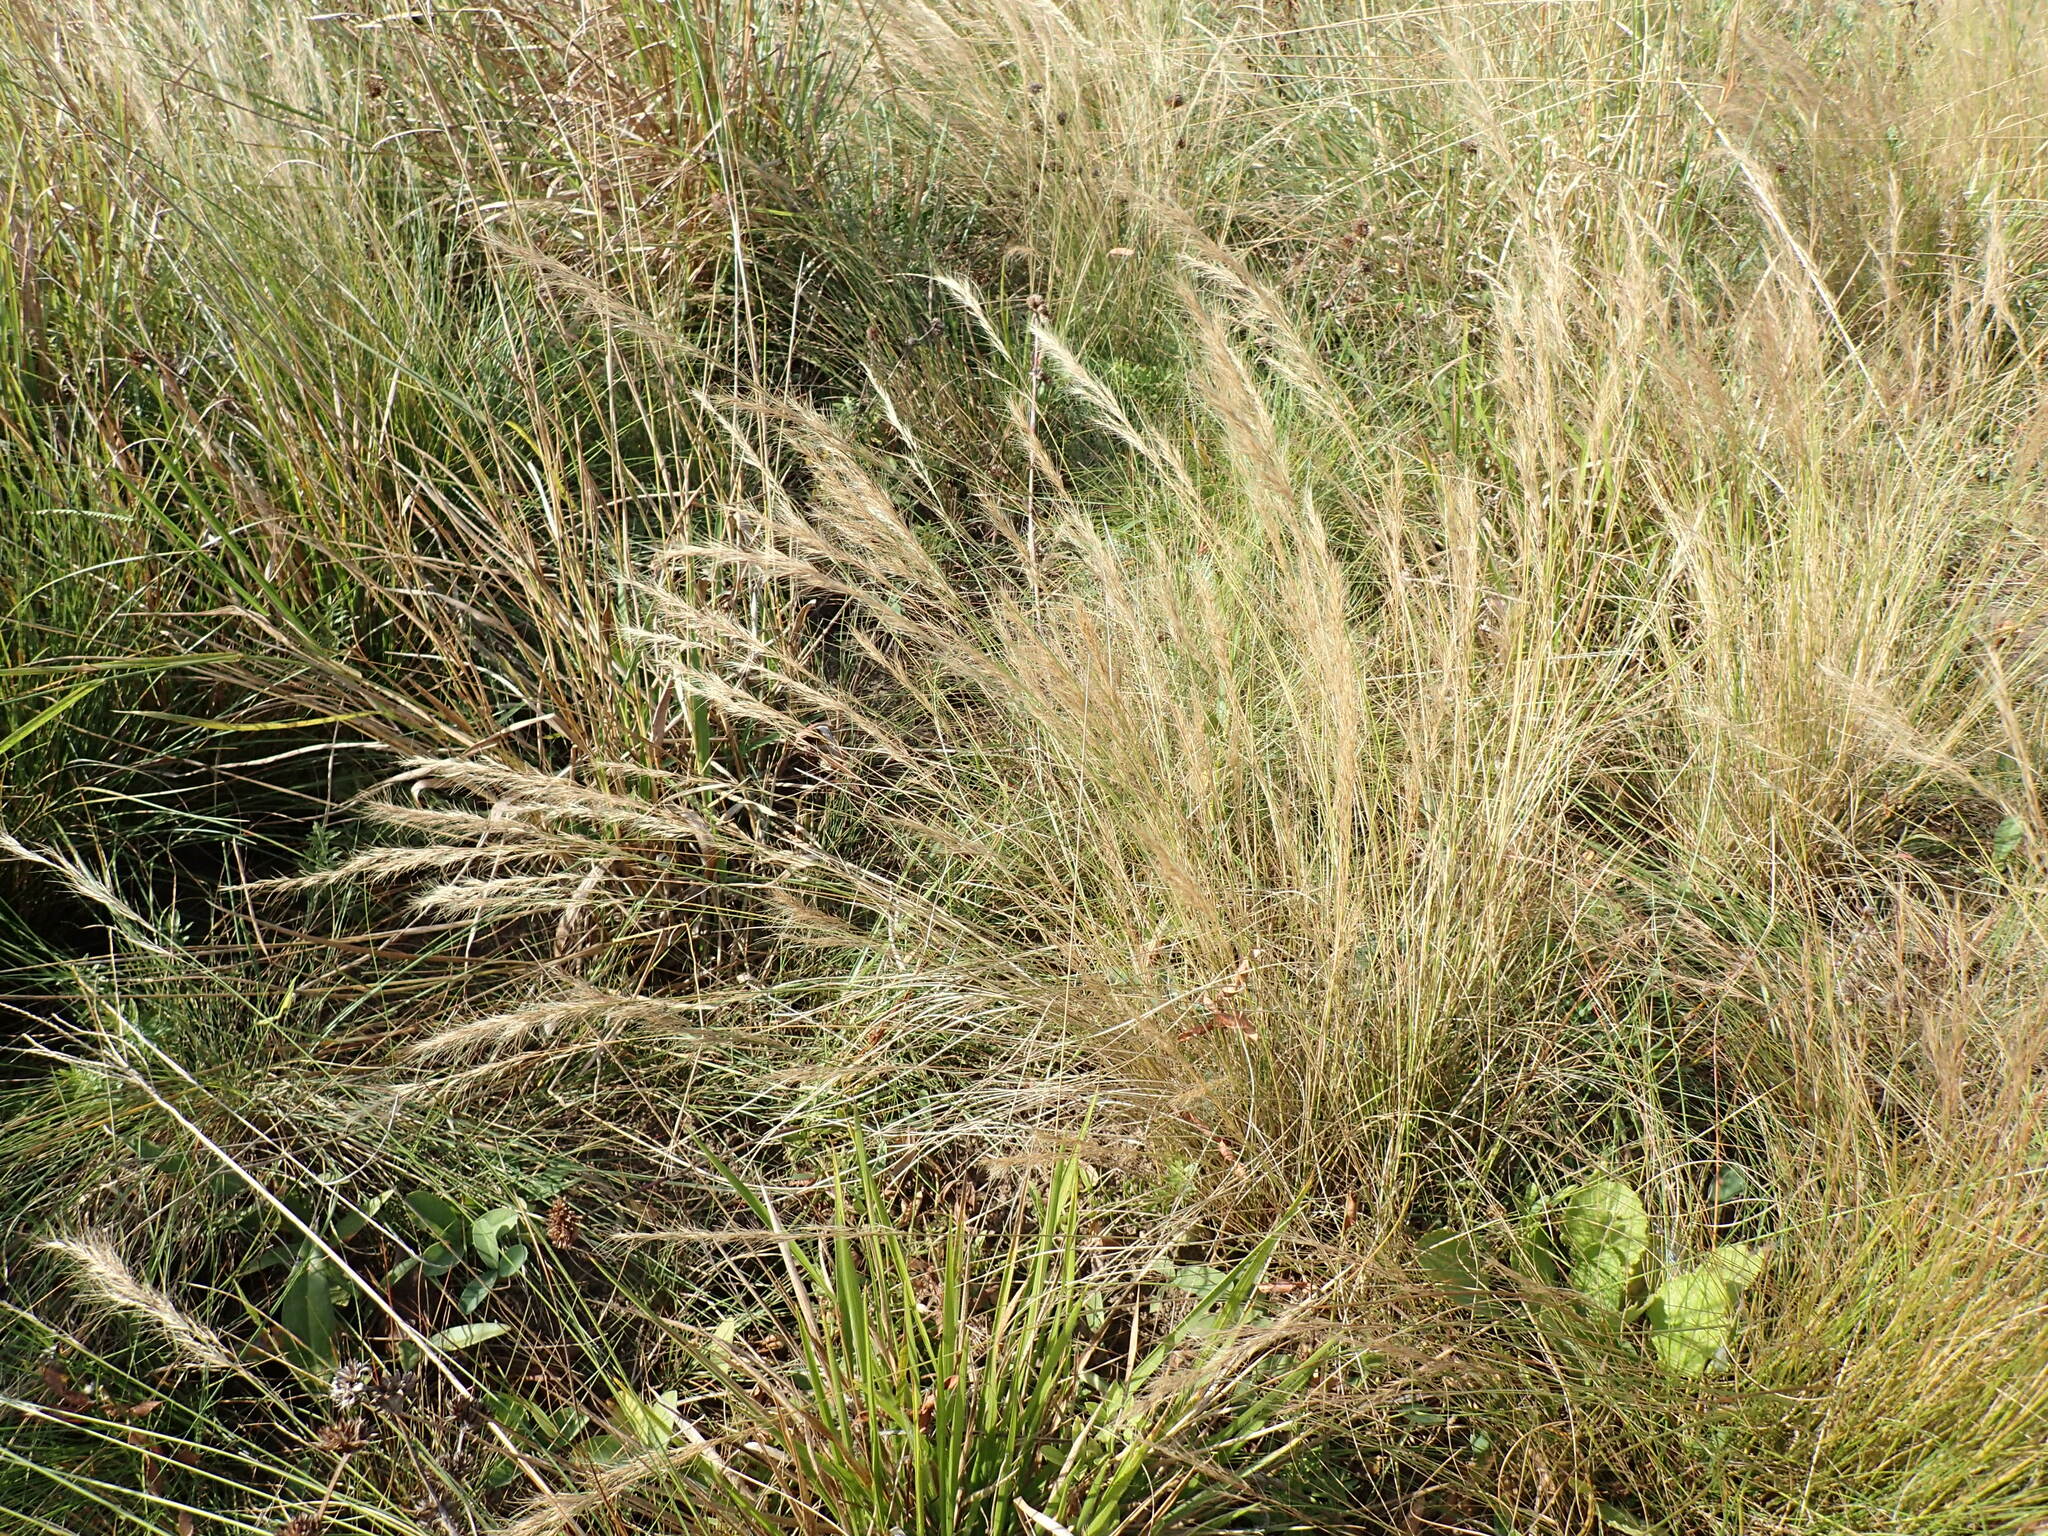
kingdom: Plantae
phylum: Tracheophyta
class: Liliopsida
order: Poales
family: Poaceae
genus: Aristida
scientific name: Aristida junciformis
